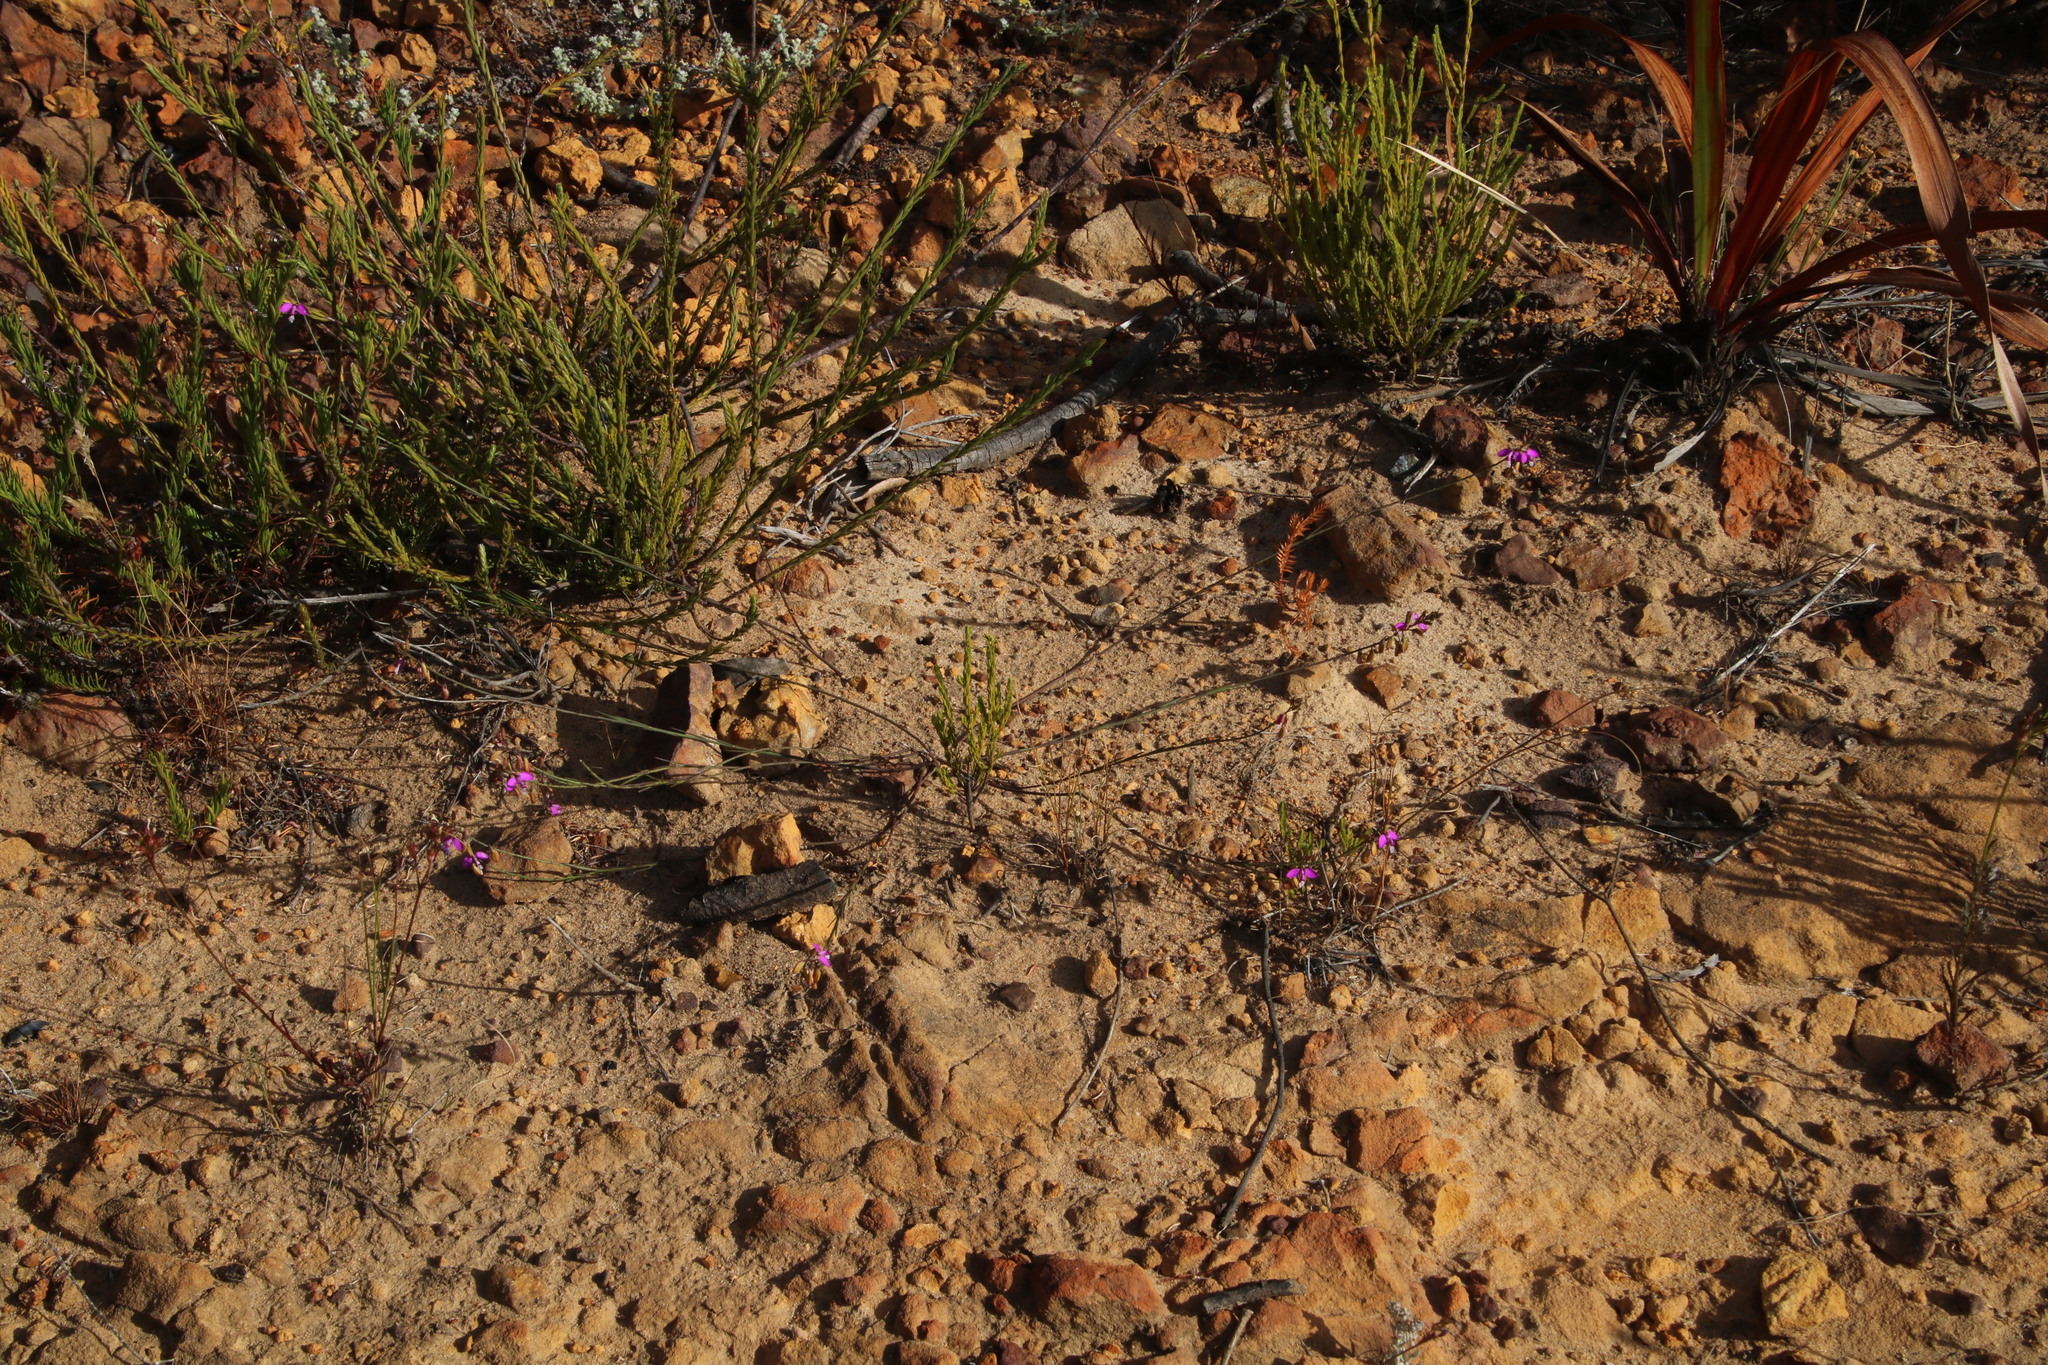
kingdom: Plantae
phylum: Tracheophyta
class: Magnoliopsida
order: Fabales
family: Polygalaceae
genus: Polygala
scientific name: Polygala garcini
